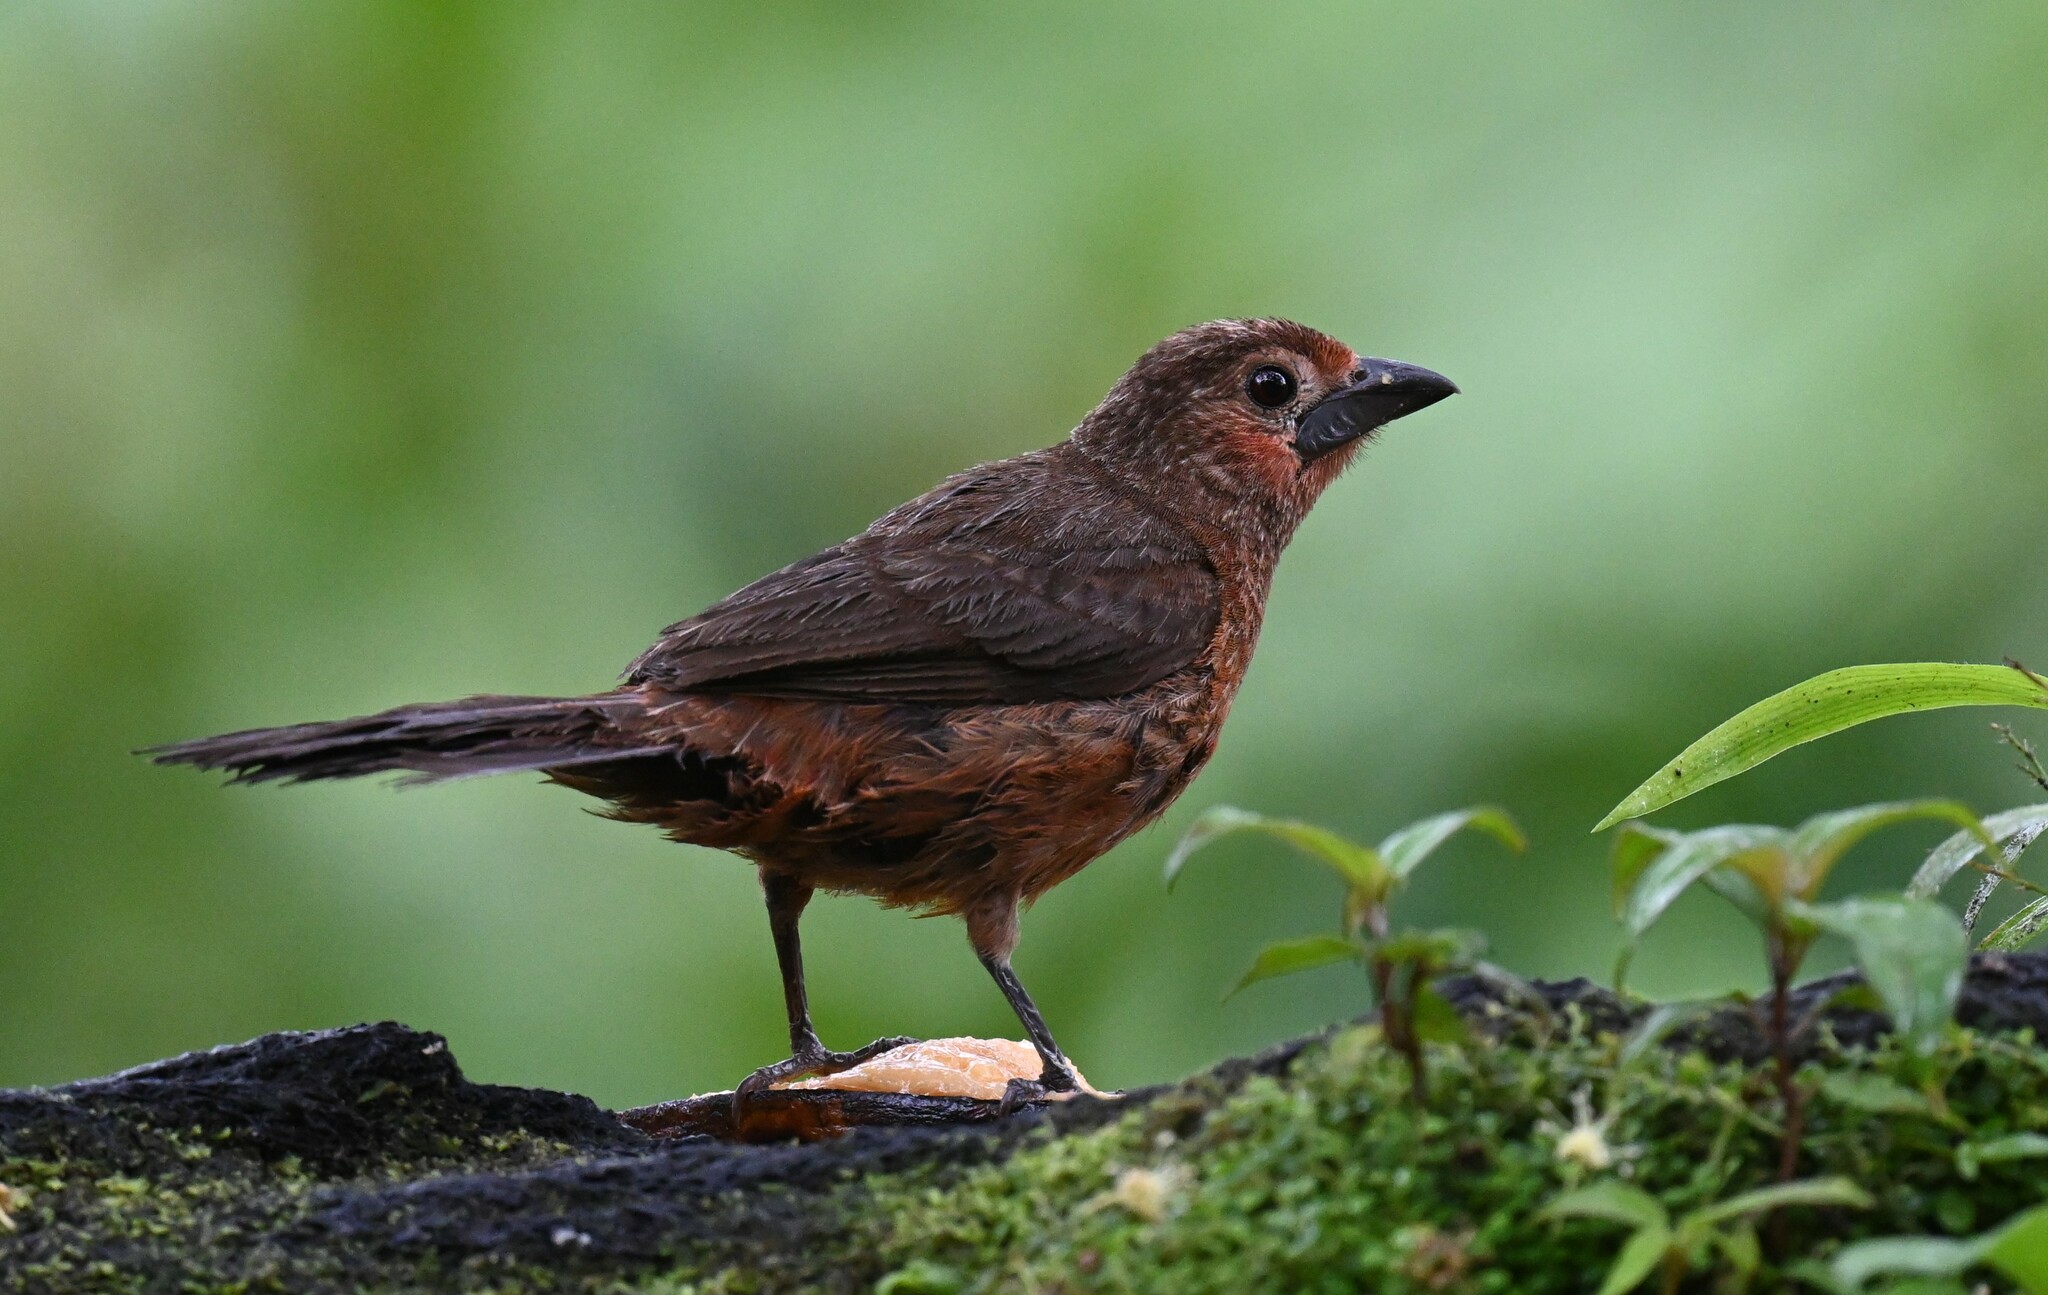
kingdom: Animalia
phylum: Chordata
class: Aves
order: Passeriformes
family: Thraupidae
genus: Ramphocelus
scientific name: Ramphocelus carbo
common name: Silver-beaked tanager
